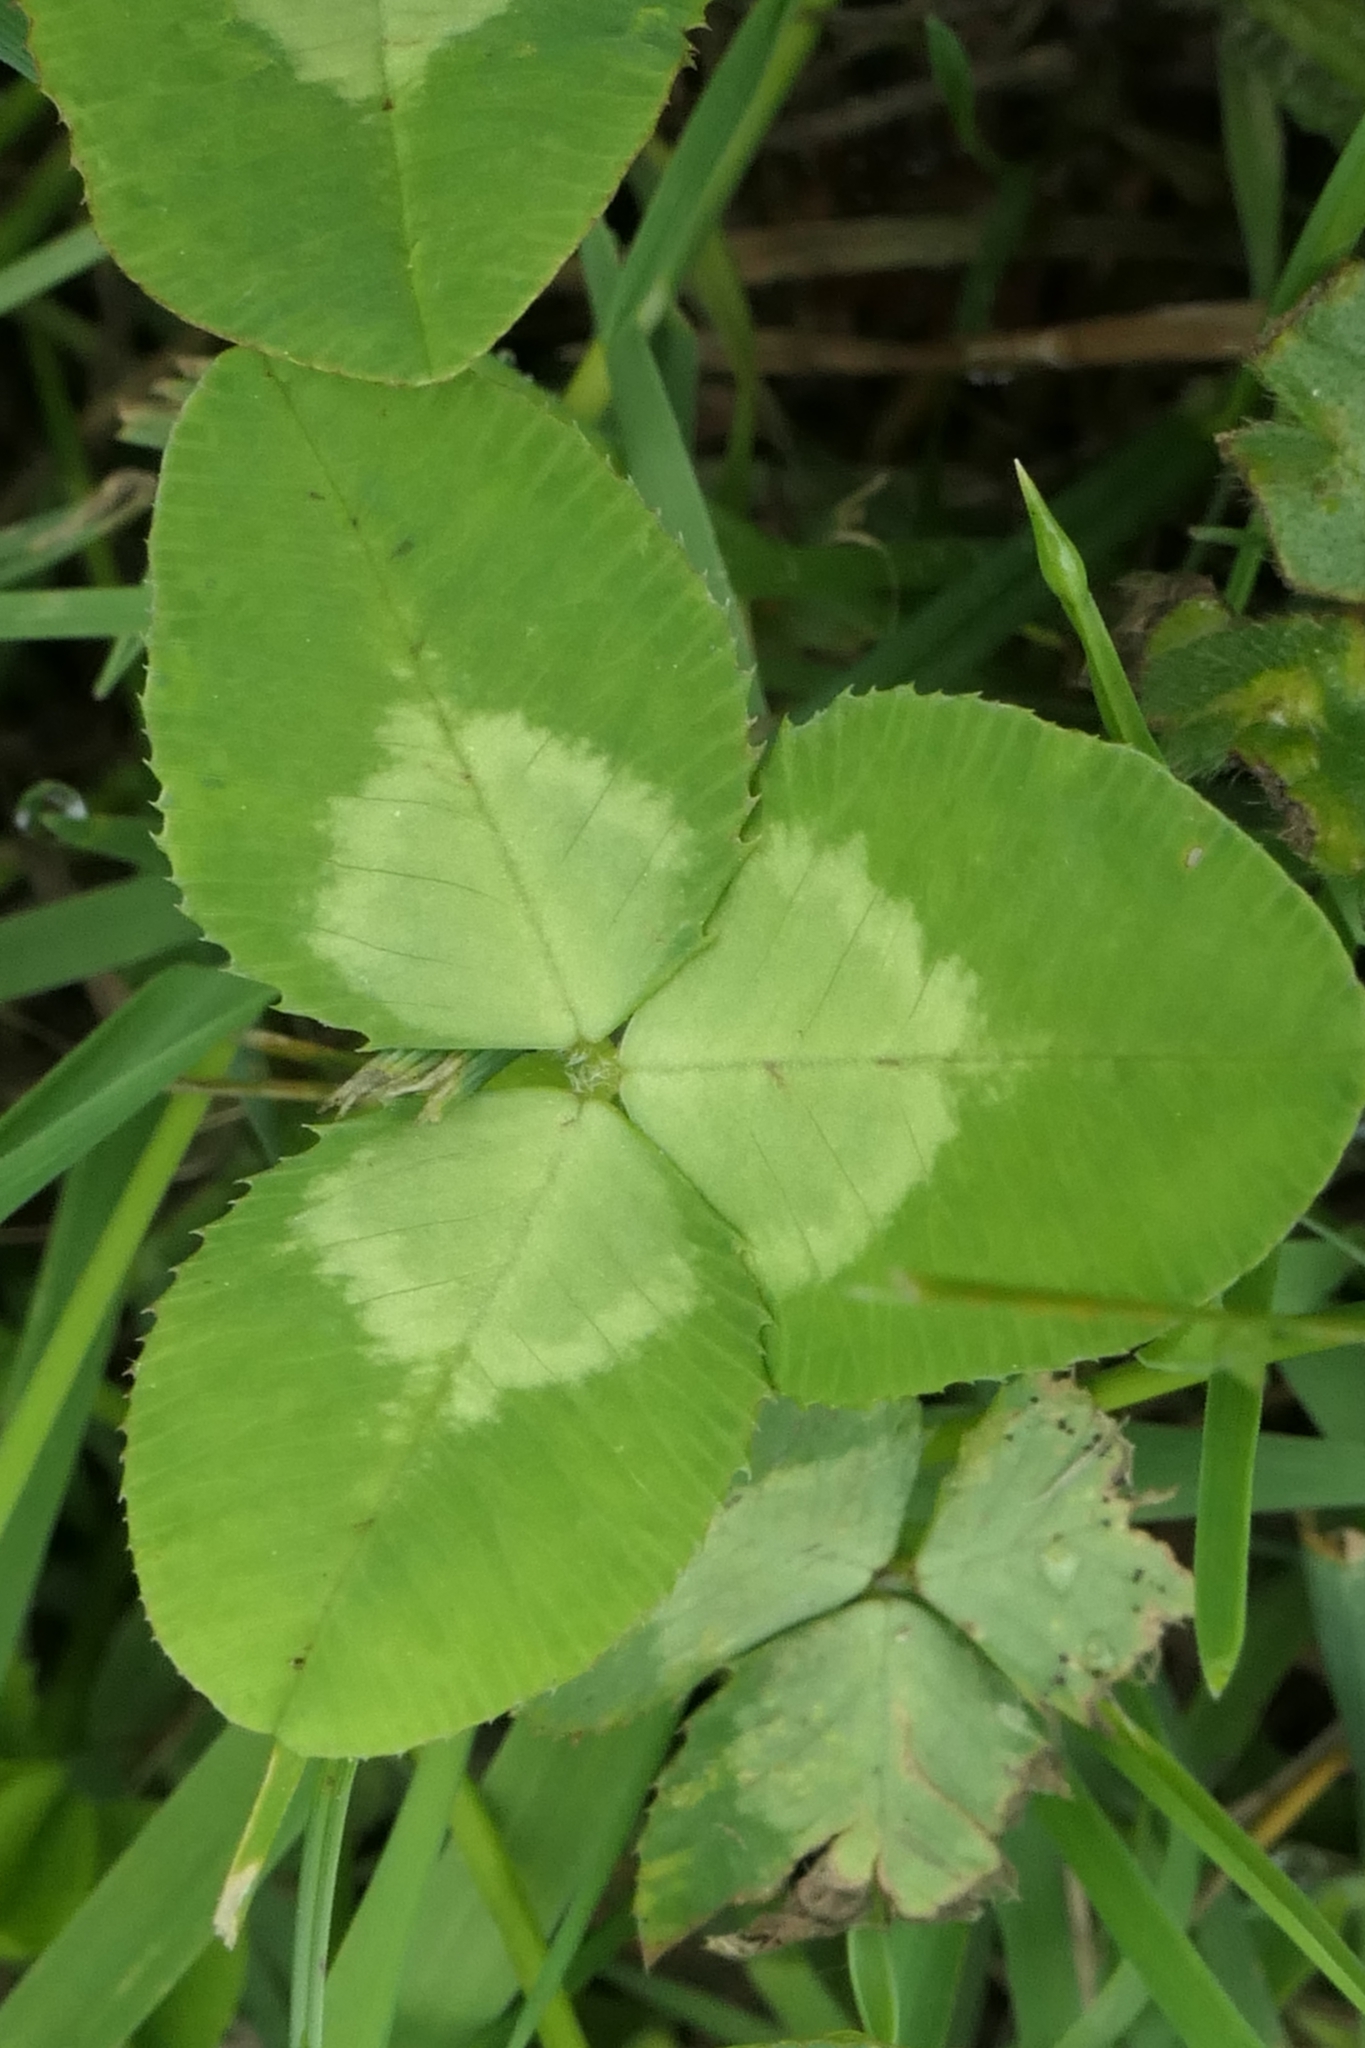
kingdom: Plantae
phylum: Tracheophyta
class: Magnoliopsida
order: Fabales
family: Fabaceae
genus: Trifolium
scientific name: Trifolium repens
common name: White clover
